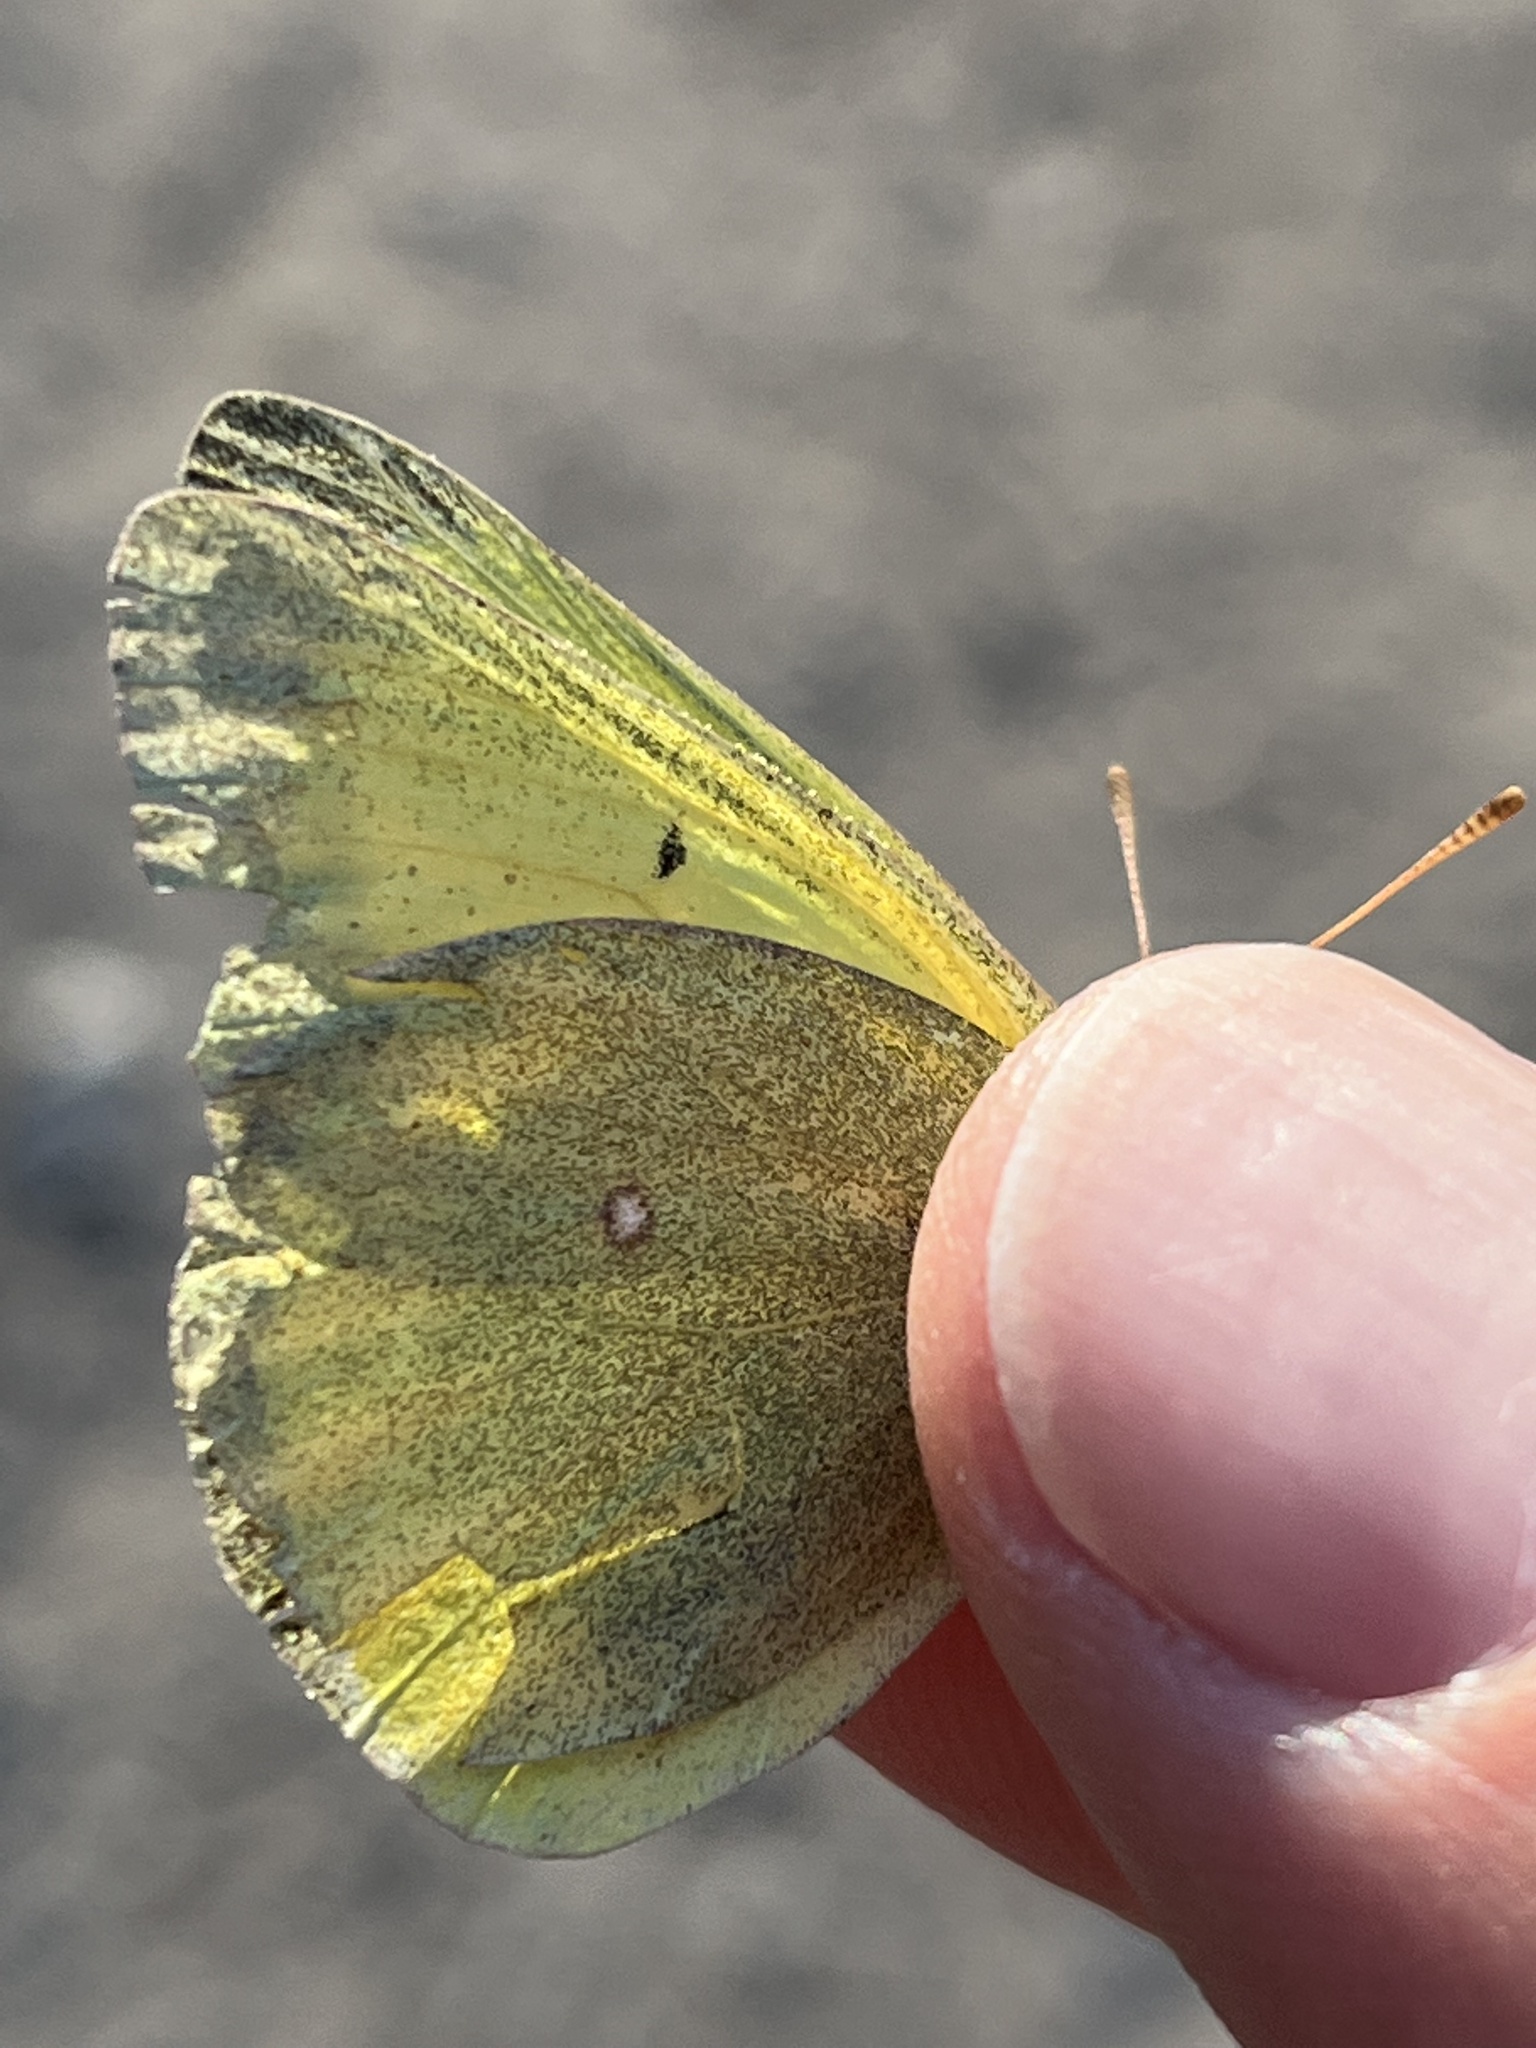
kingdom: Animalia
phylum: Arthropoda
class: Insecta
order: Lepidoptera
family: Pieridae
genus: Colias
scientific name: Colias christina
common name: Christina sulphur
